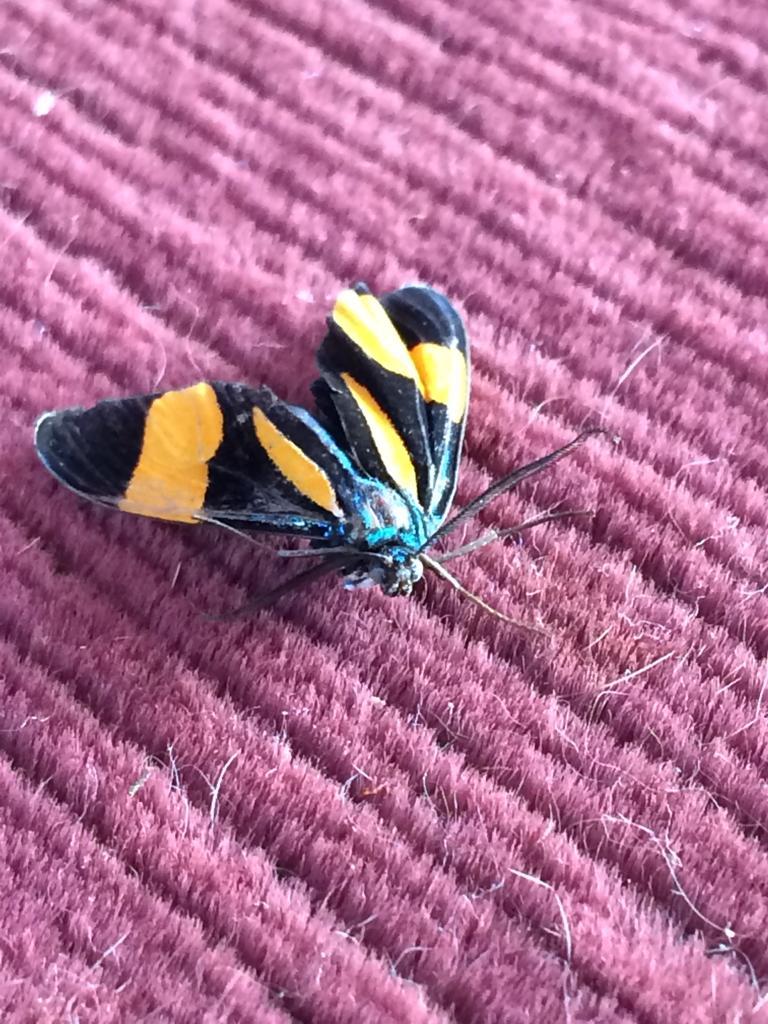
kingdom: Animalia
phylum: Arthropoda
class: Insecta
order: Lepidoptera
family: Erebidae
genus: Uranophora
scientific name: Uranophora castra
